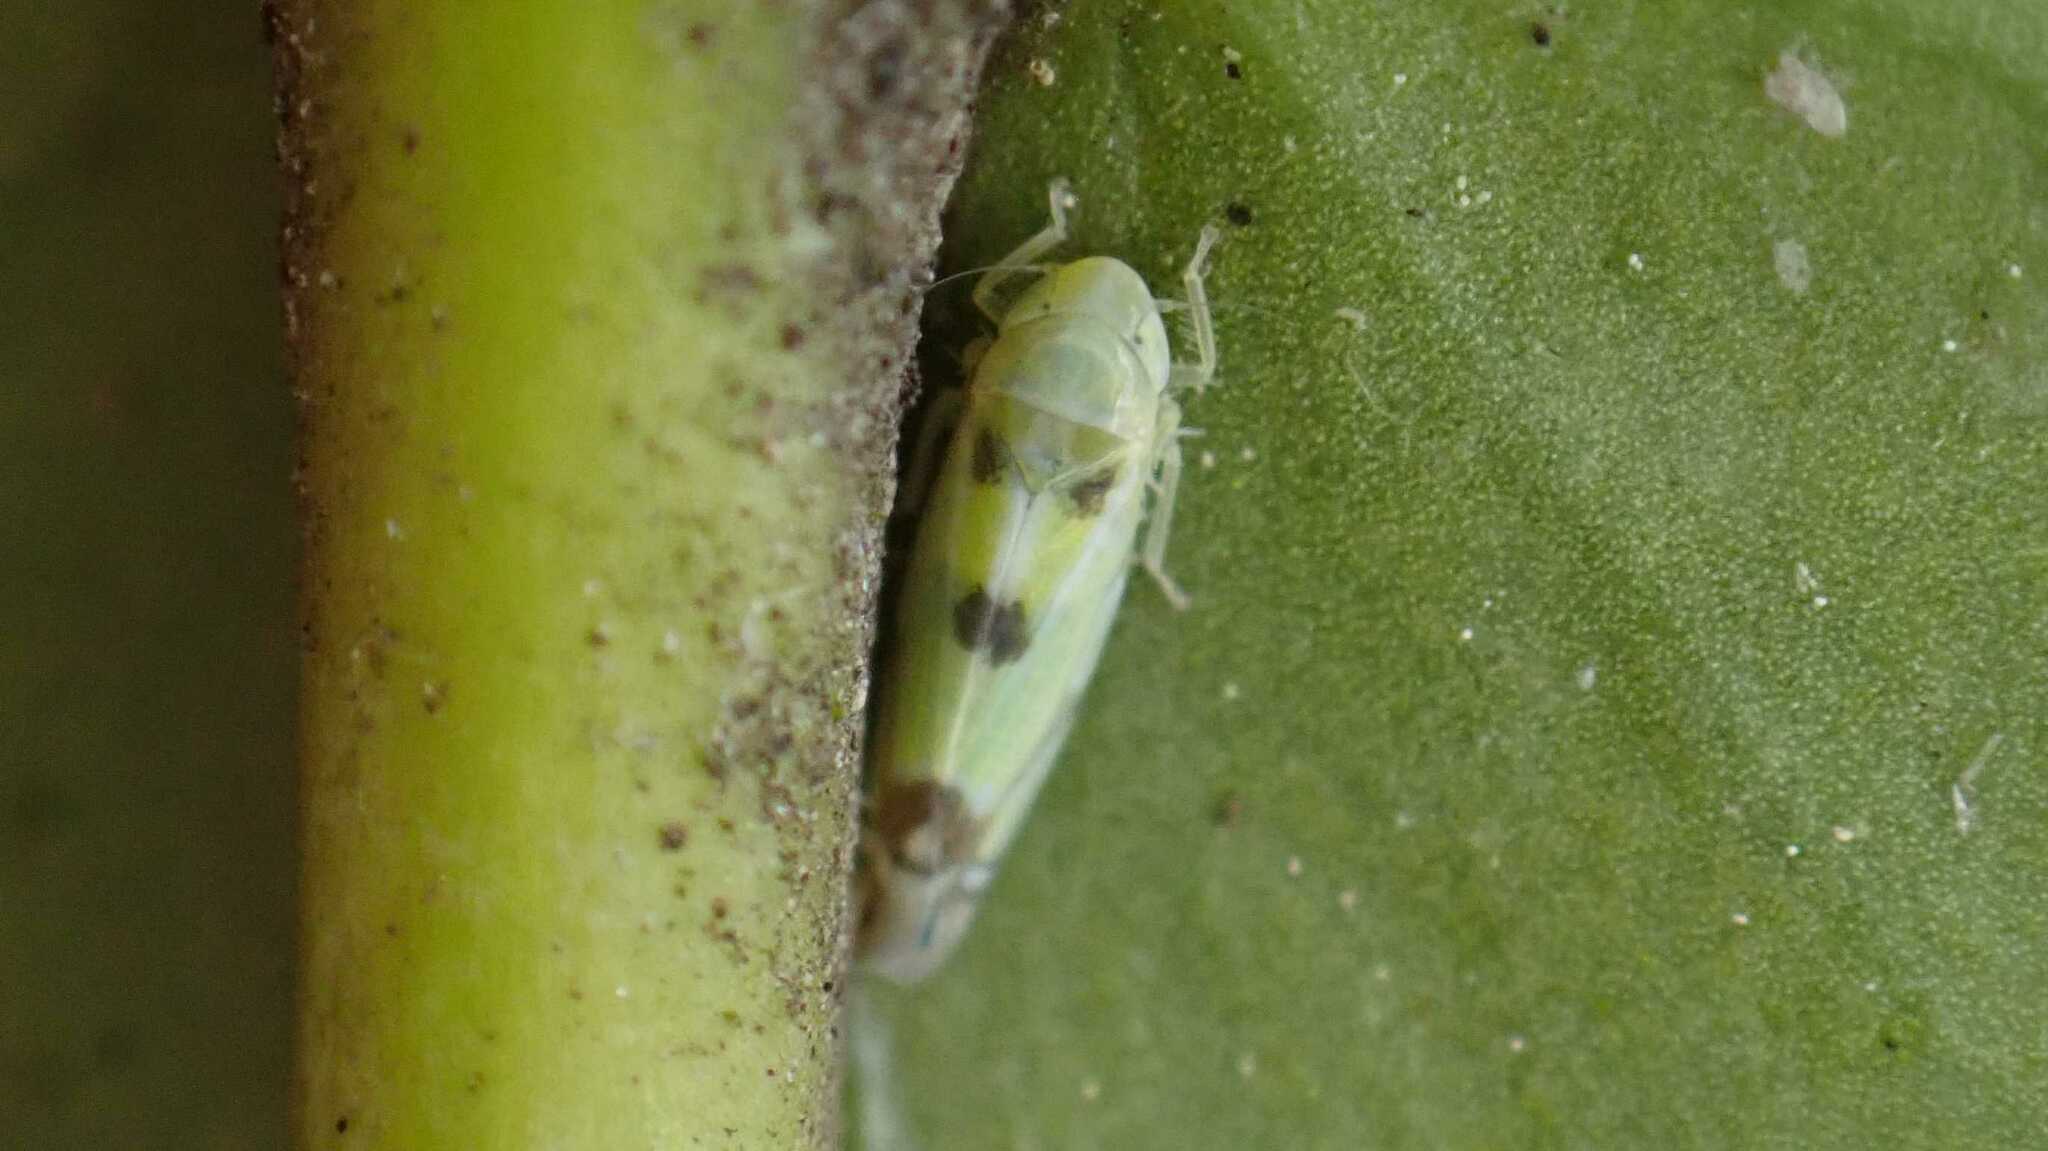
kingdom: Animalia
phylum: Arthropoda
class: Insecta
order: Hemiptera
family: Cicadellidae
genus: Zyginella
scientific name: Zyginella pulchra
